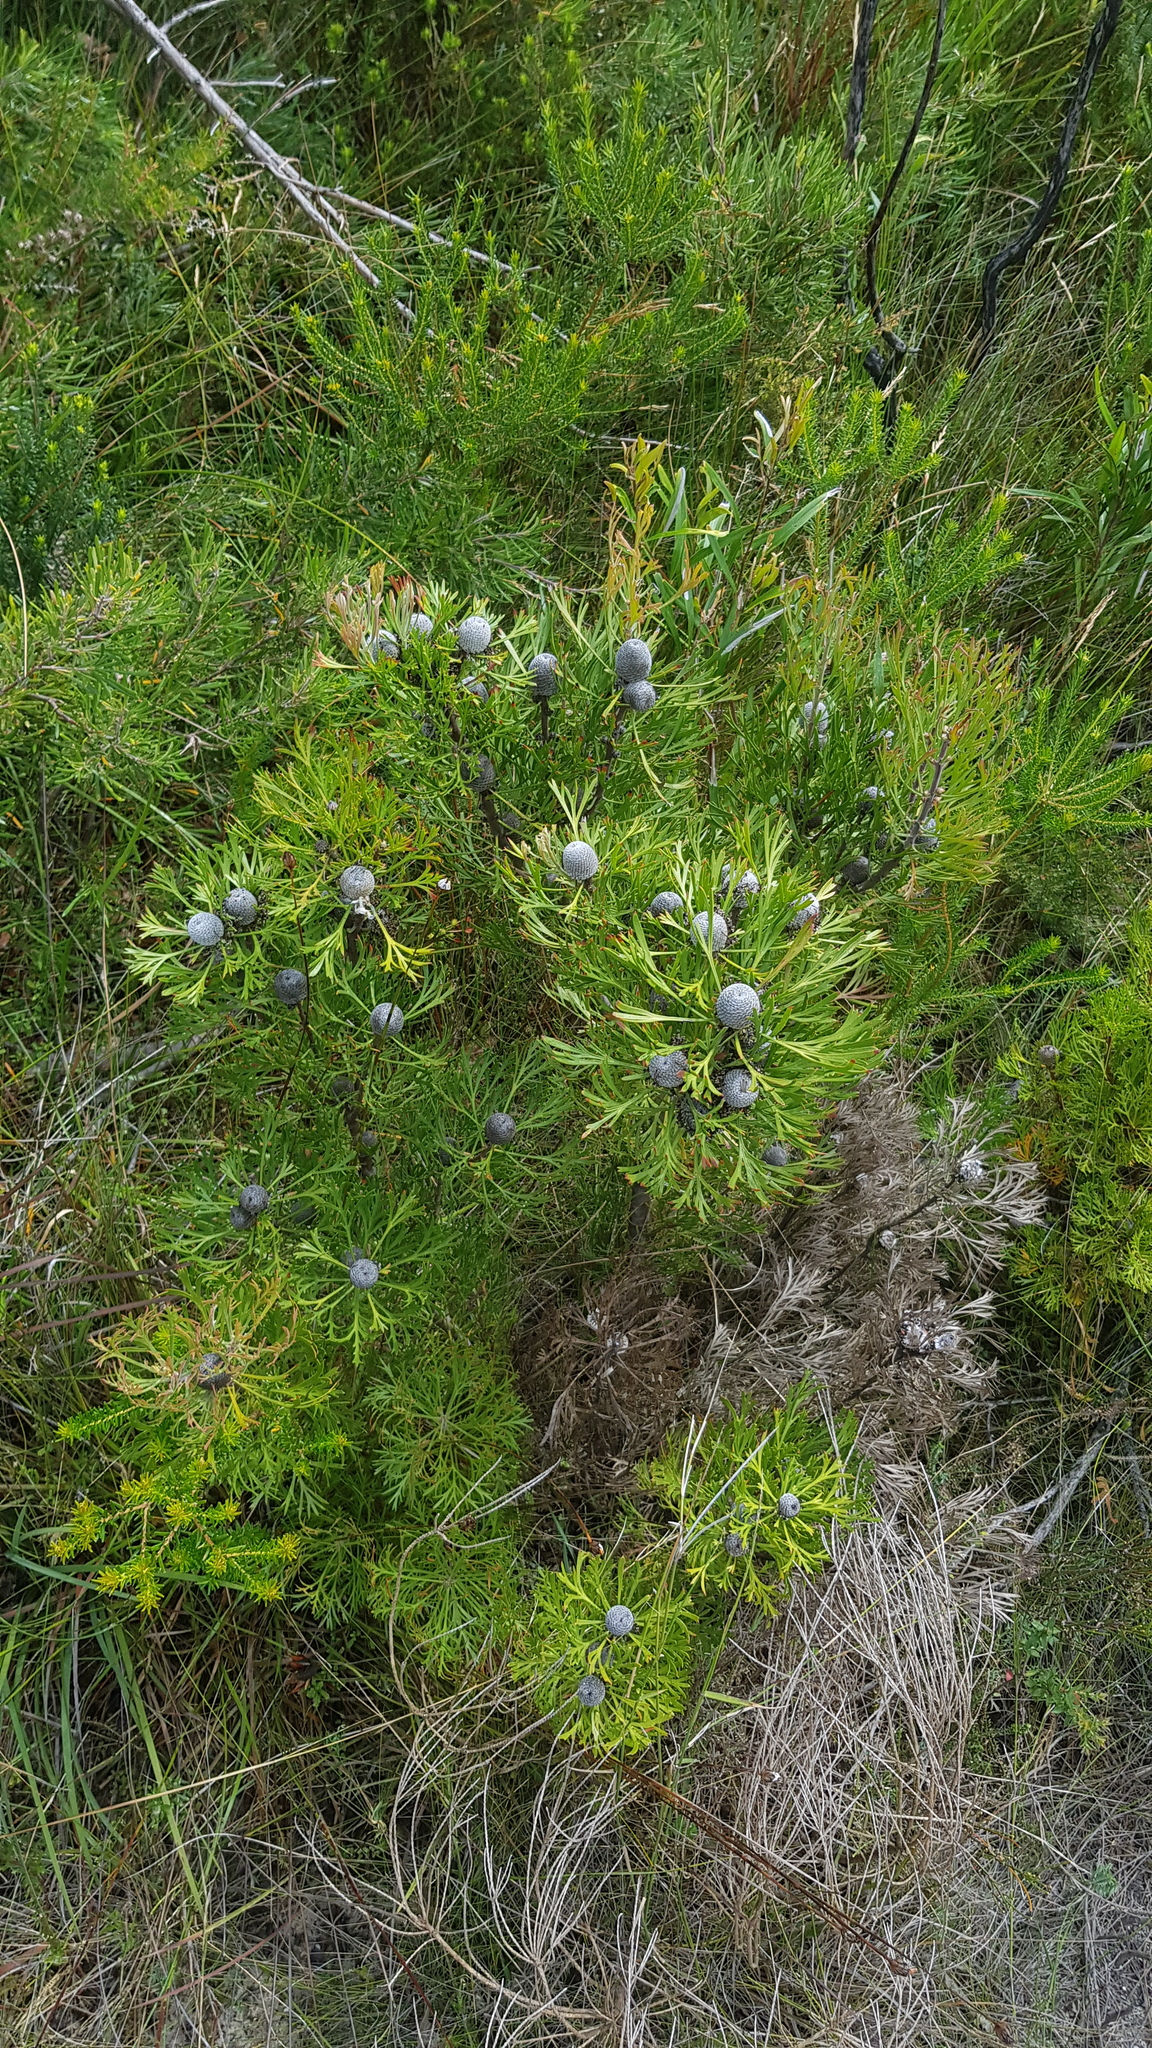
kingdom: Plantae
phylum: Tracheophyta
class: Magnoliopsida
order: Proteales
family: Proteaceae
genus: Isopogon
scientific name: Isopogon anemonifolius
